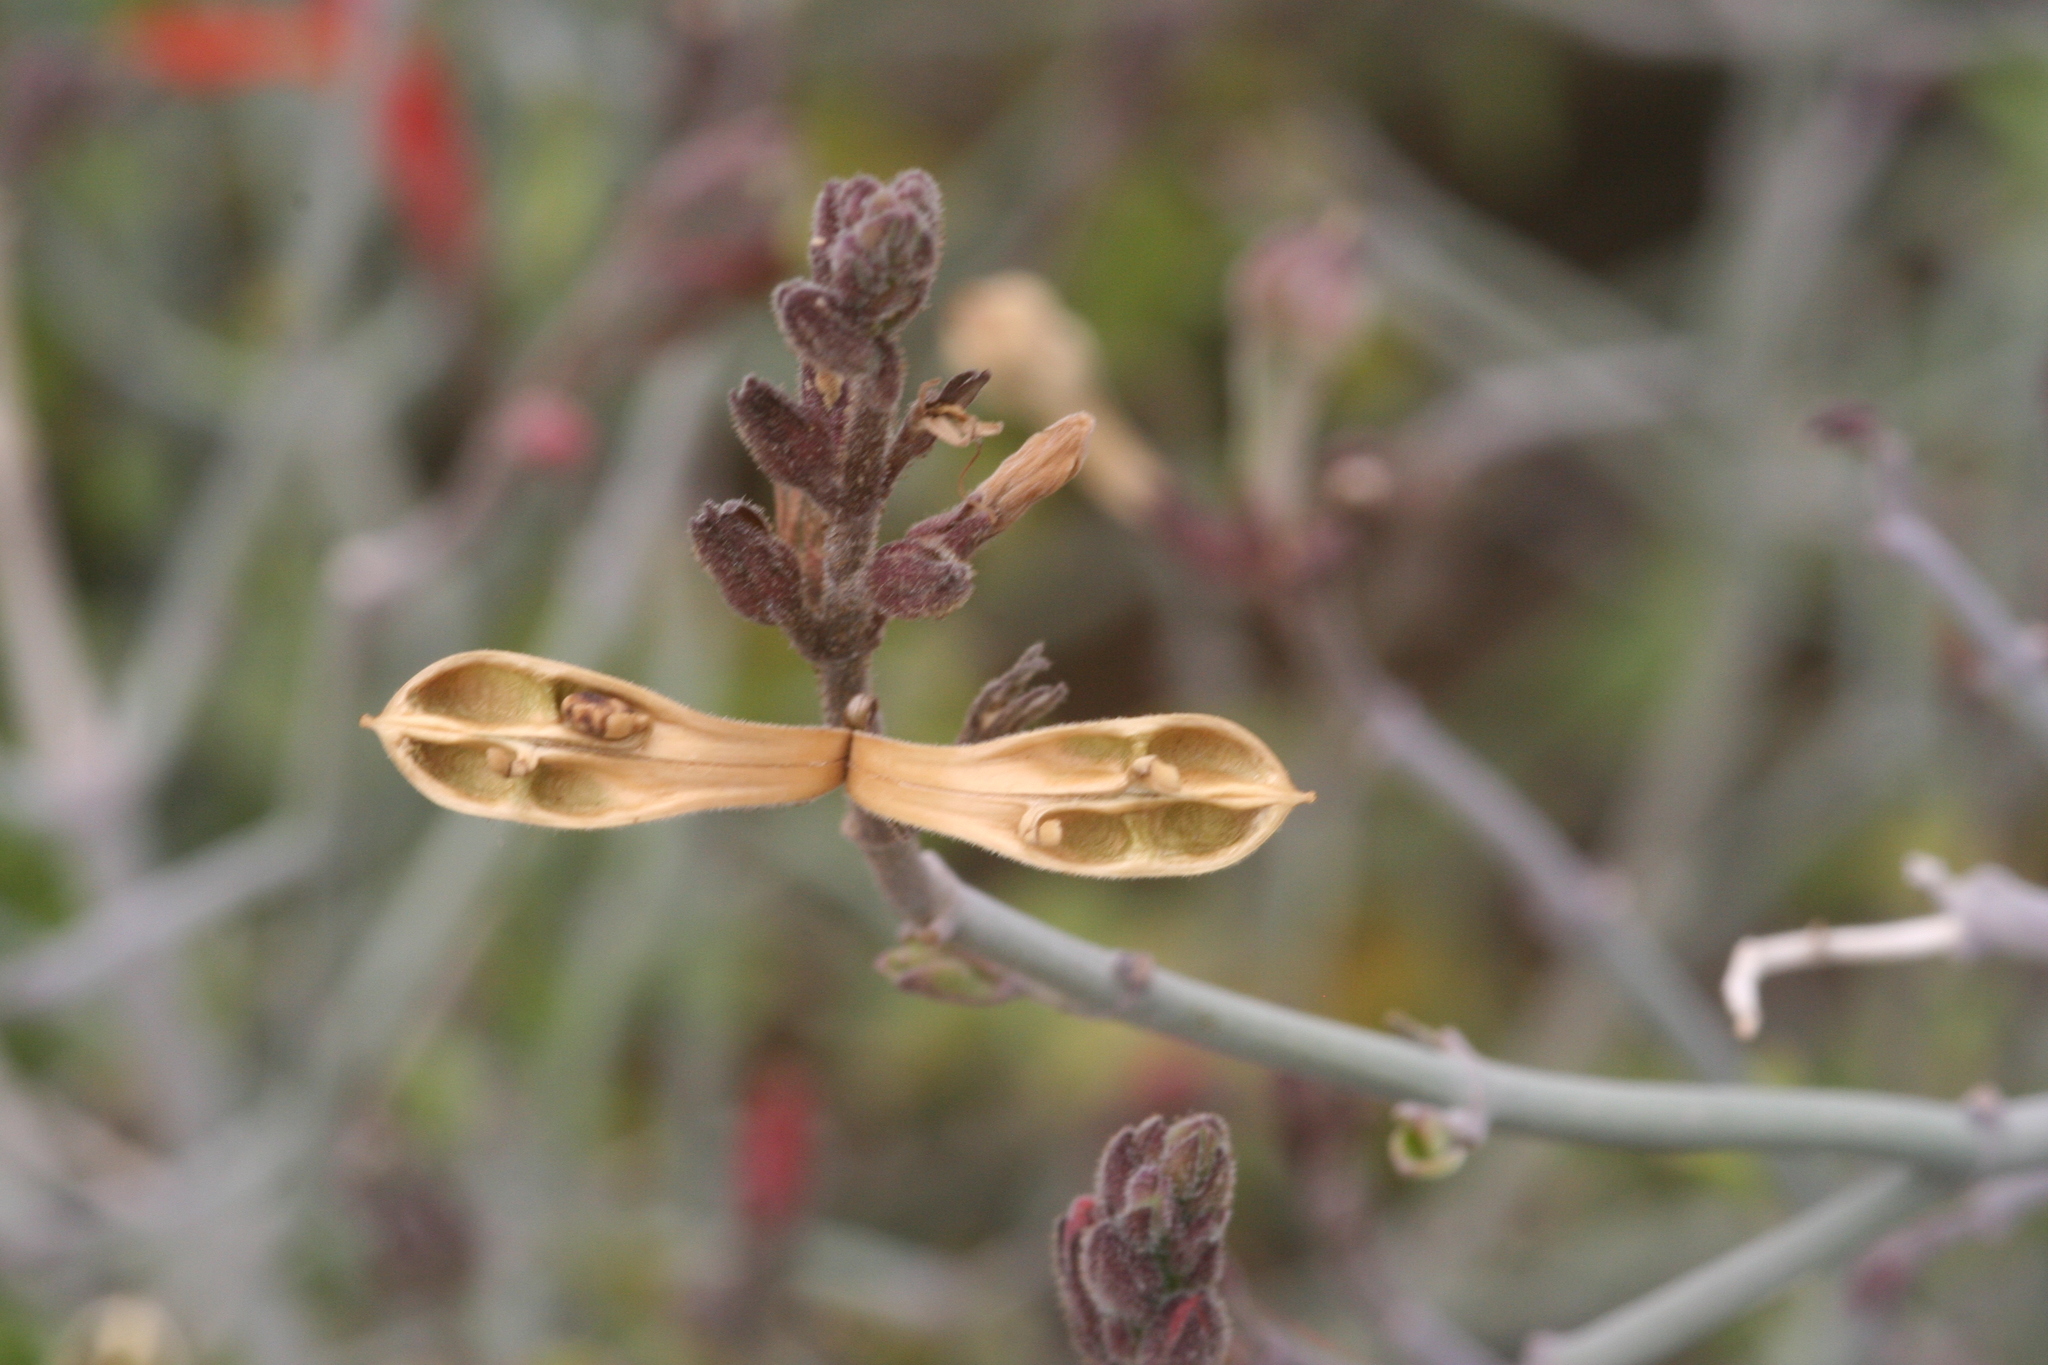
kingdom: Plantae
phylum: Tracheophyta
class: Magnoliopsida
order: Lamiales
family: Acanthaceae
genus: Justicia
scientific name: Justicia californica
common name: Chuparosa-honeysuckle
